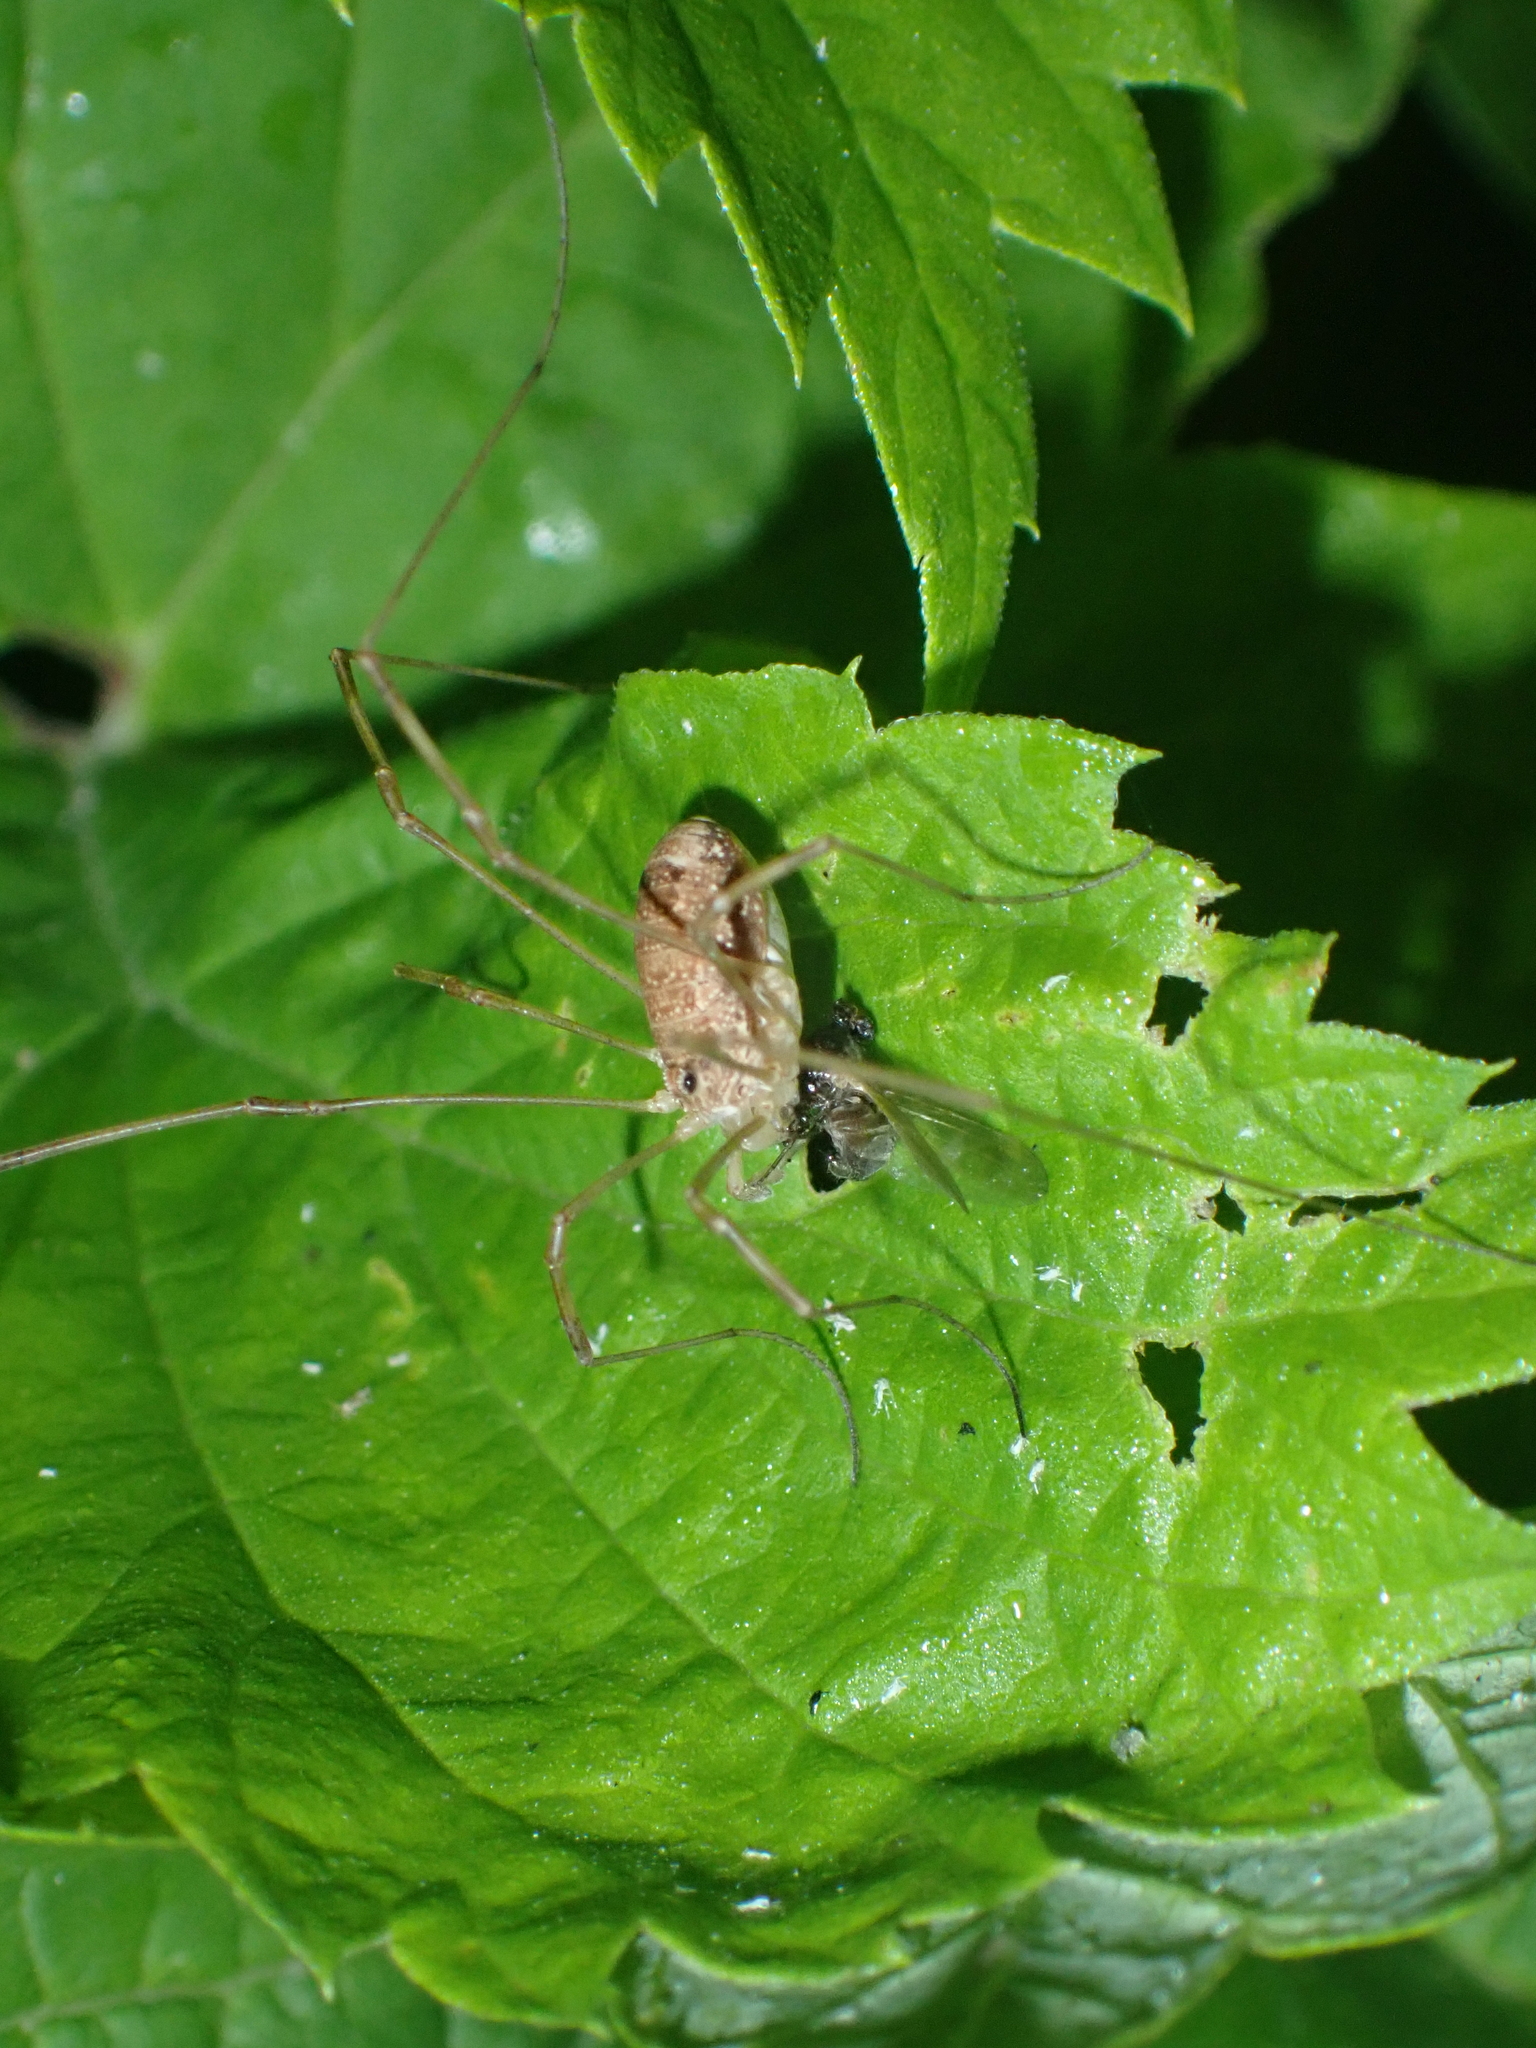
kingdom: Animalia
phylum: Arthropoda
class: Arachnida
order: Opiliones
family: Phalangiidae
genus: Rilaena
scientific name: Rilaena triangularis
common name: Spring harvestman
